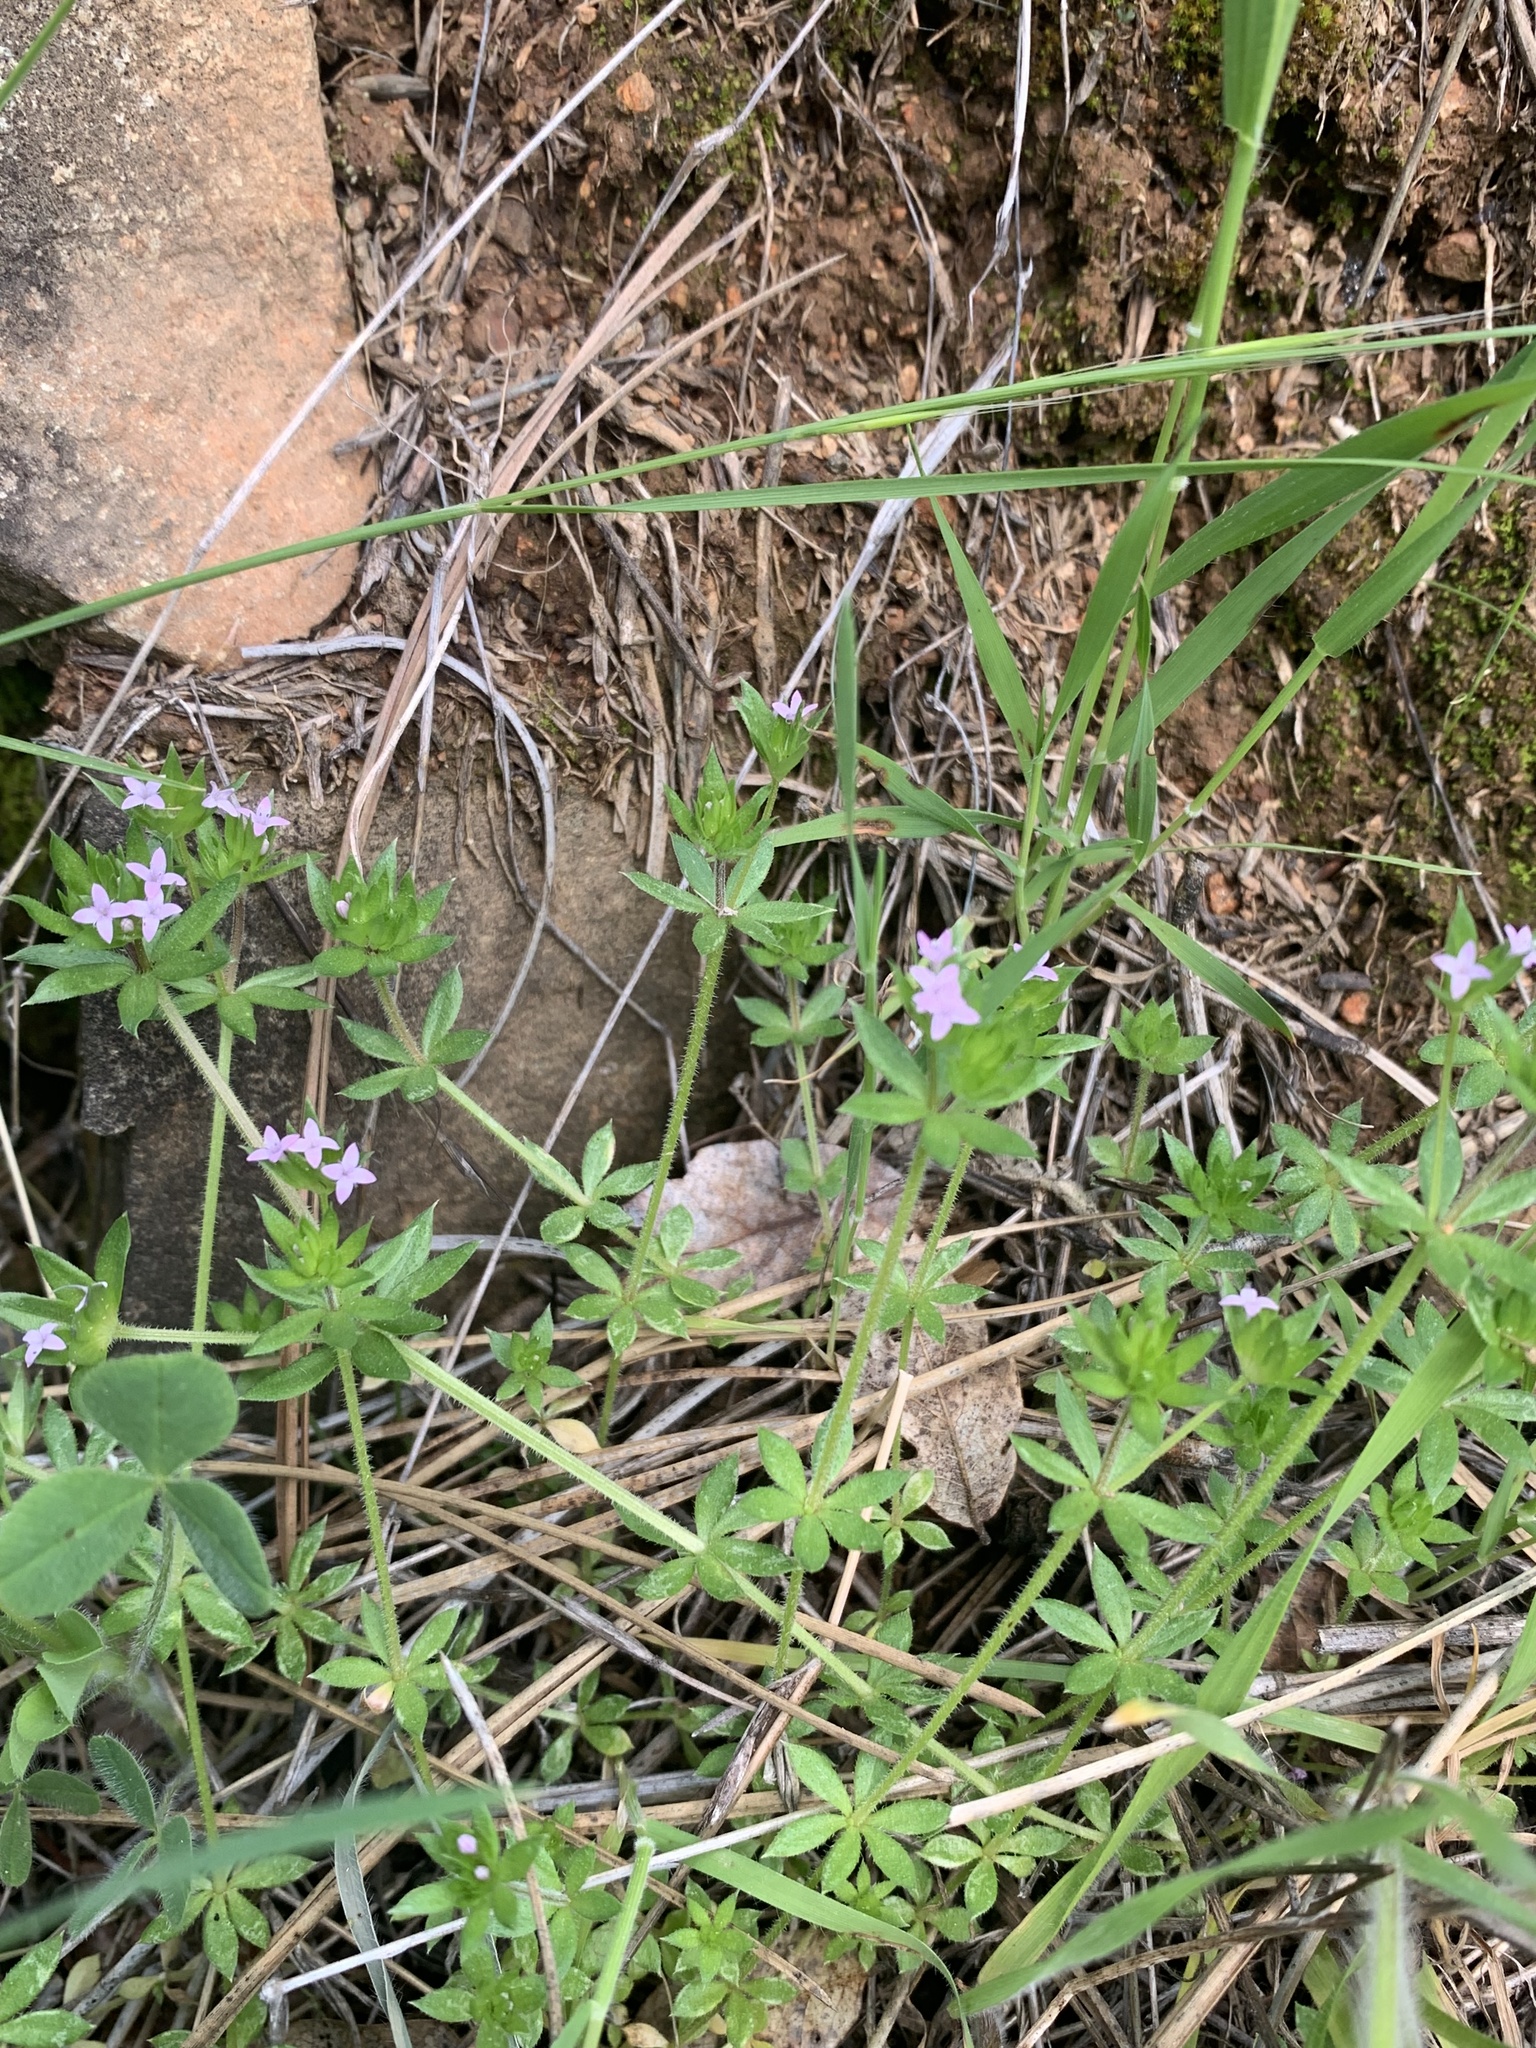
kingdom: Plantae
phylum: Tracheophyta
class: Magnoliopsida
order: Gentianales
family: Rubiaceae
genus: Sherardia
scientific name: Sherardia arvensis
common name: Field madder
